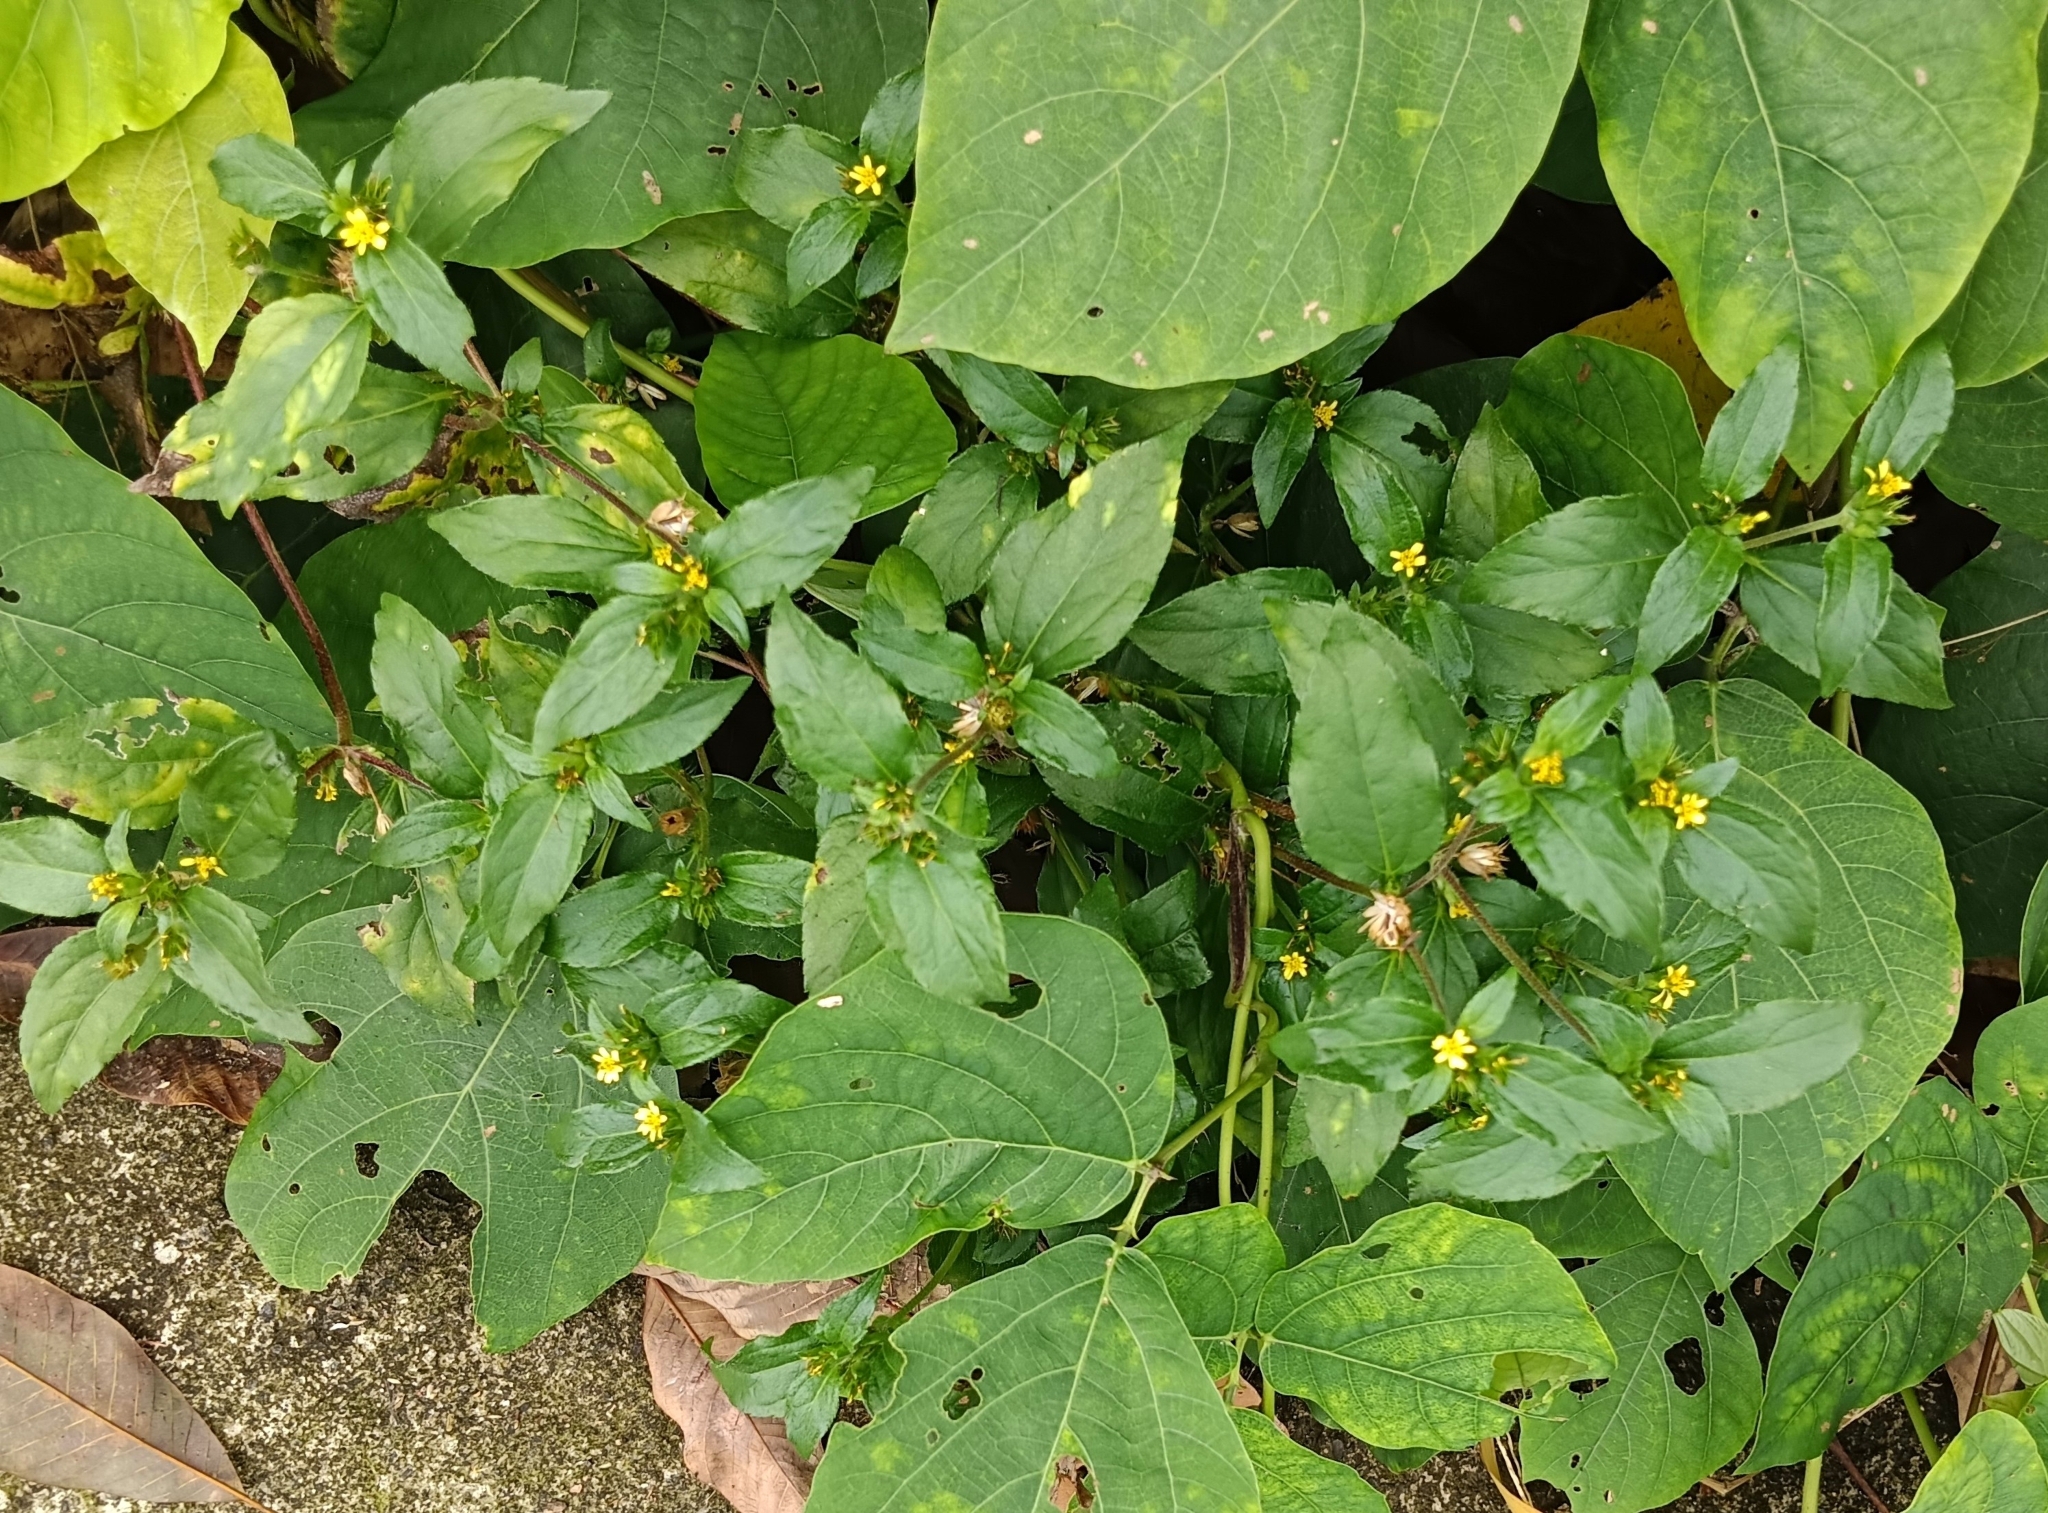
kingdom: Plantae
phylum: Tracheophyta
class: Magnoliopsida
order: Asterales
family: Asteraceae
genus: Synedrella
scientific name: Synedrella nodiflora
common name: Nodeweed
